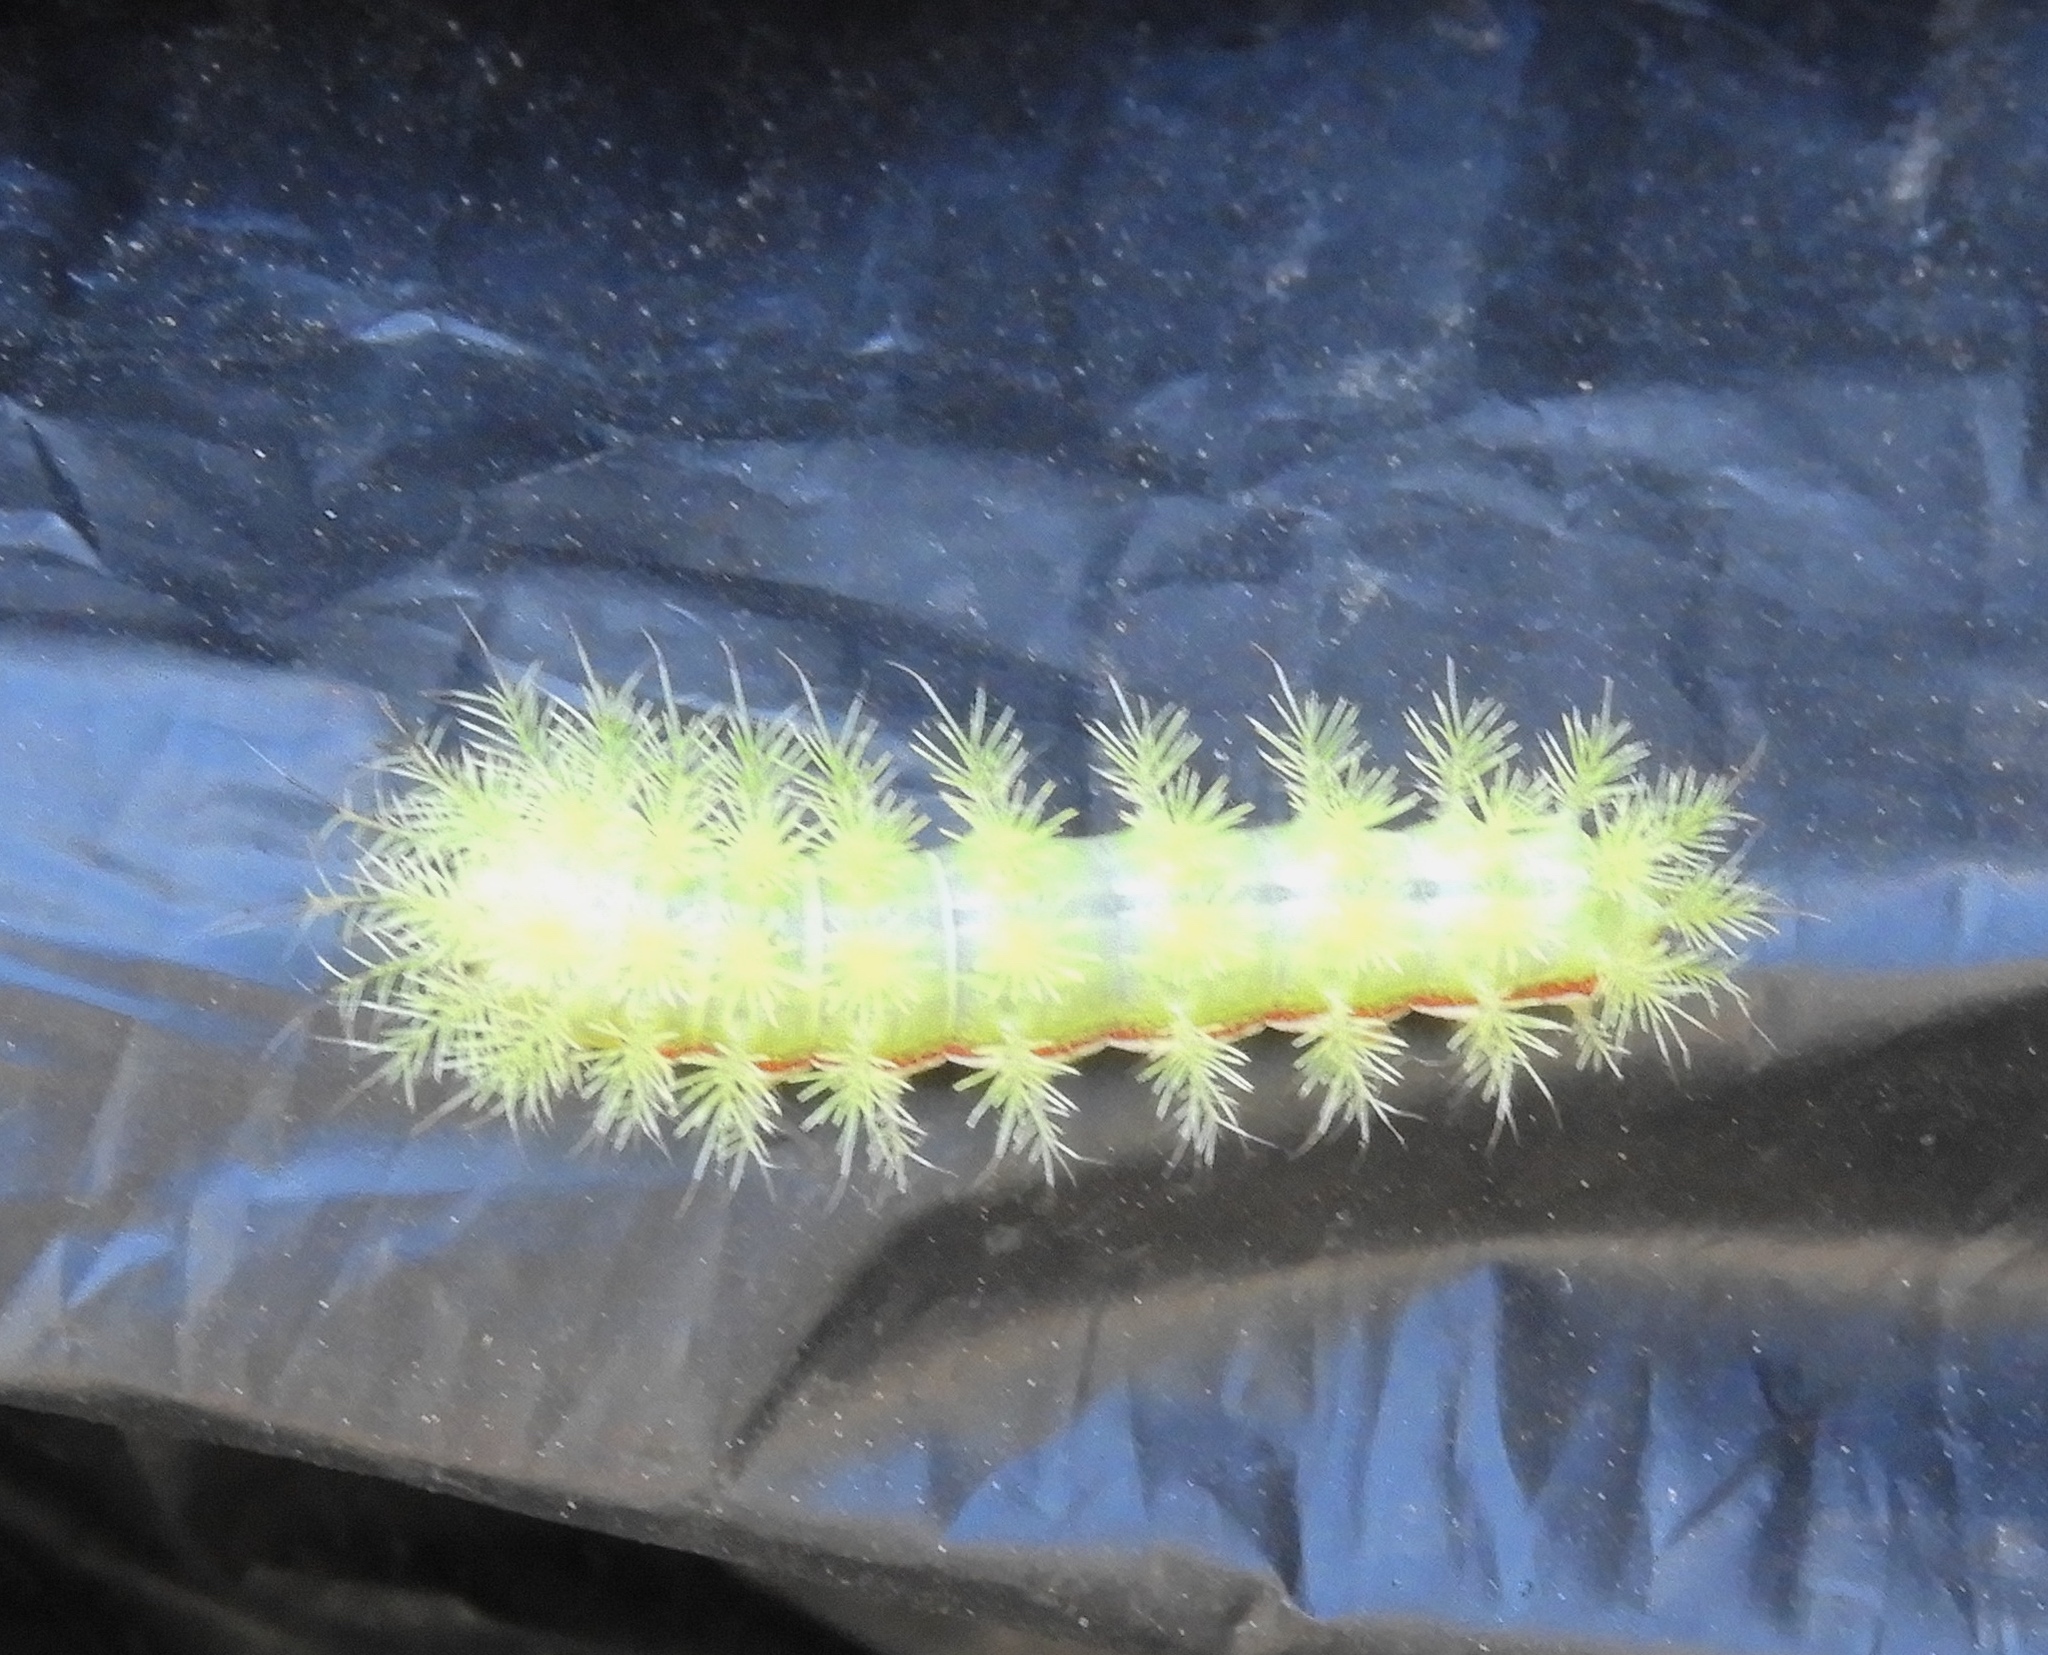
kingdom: Animalia
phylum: Arthropoda
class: Insecta
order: Lepidoptera
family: Saturniidae
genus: Automeris
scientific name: Automeris
